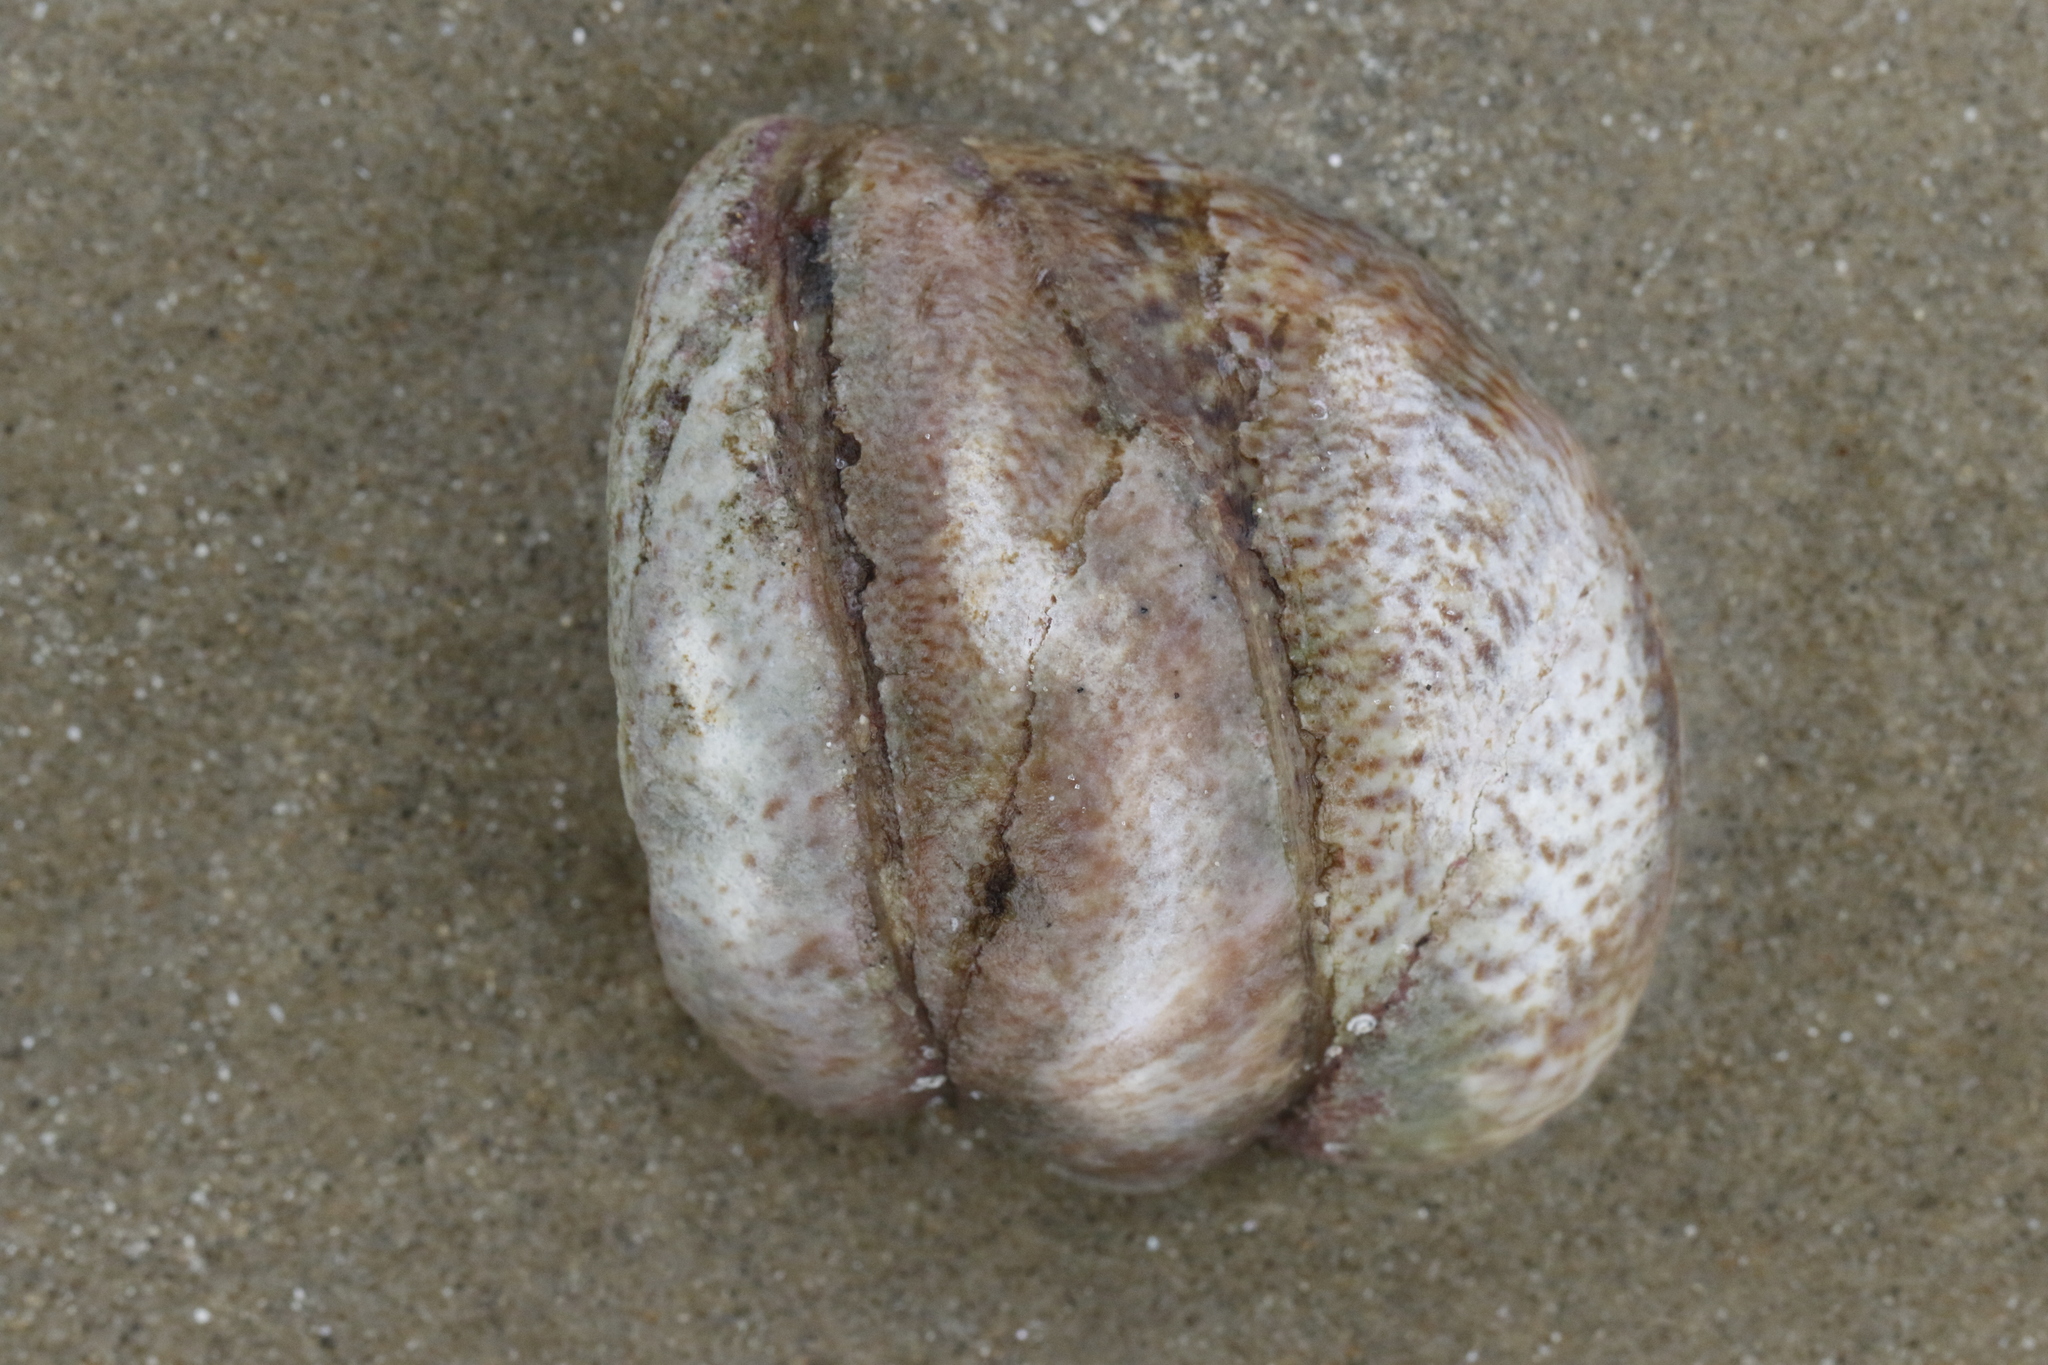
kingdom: Animalia
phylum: Mollusca
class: Gastropoda
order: Littorinimorpha
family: Calyptraeidae
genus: Crepidula
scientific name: Crepidula fornicata
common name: Slipper limpet
